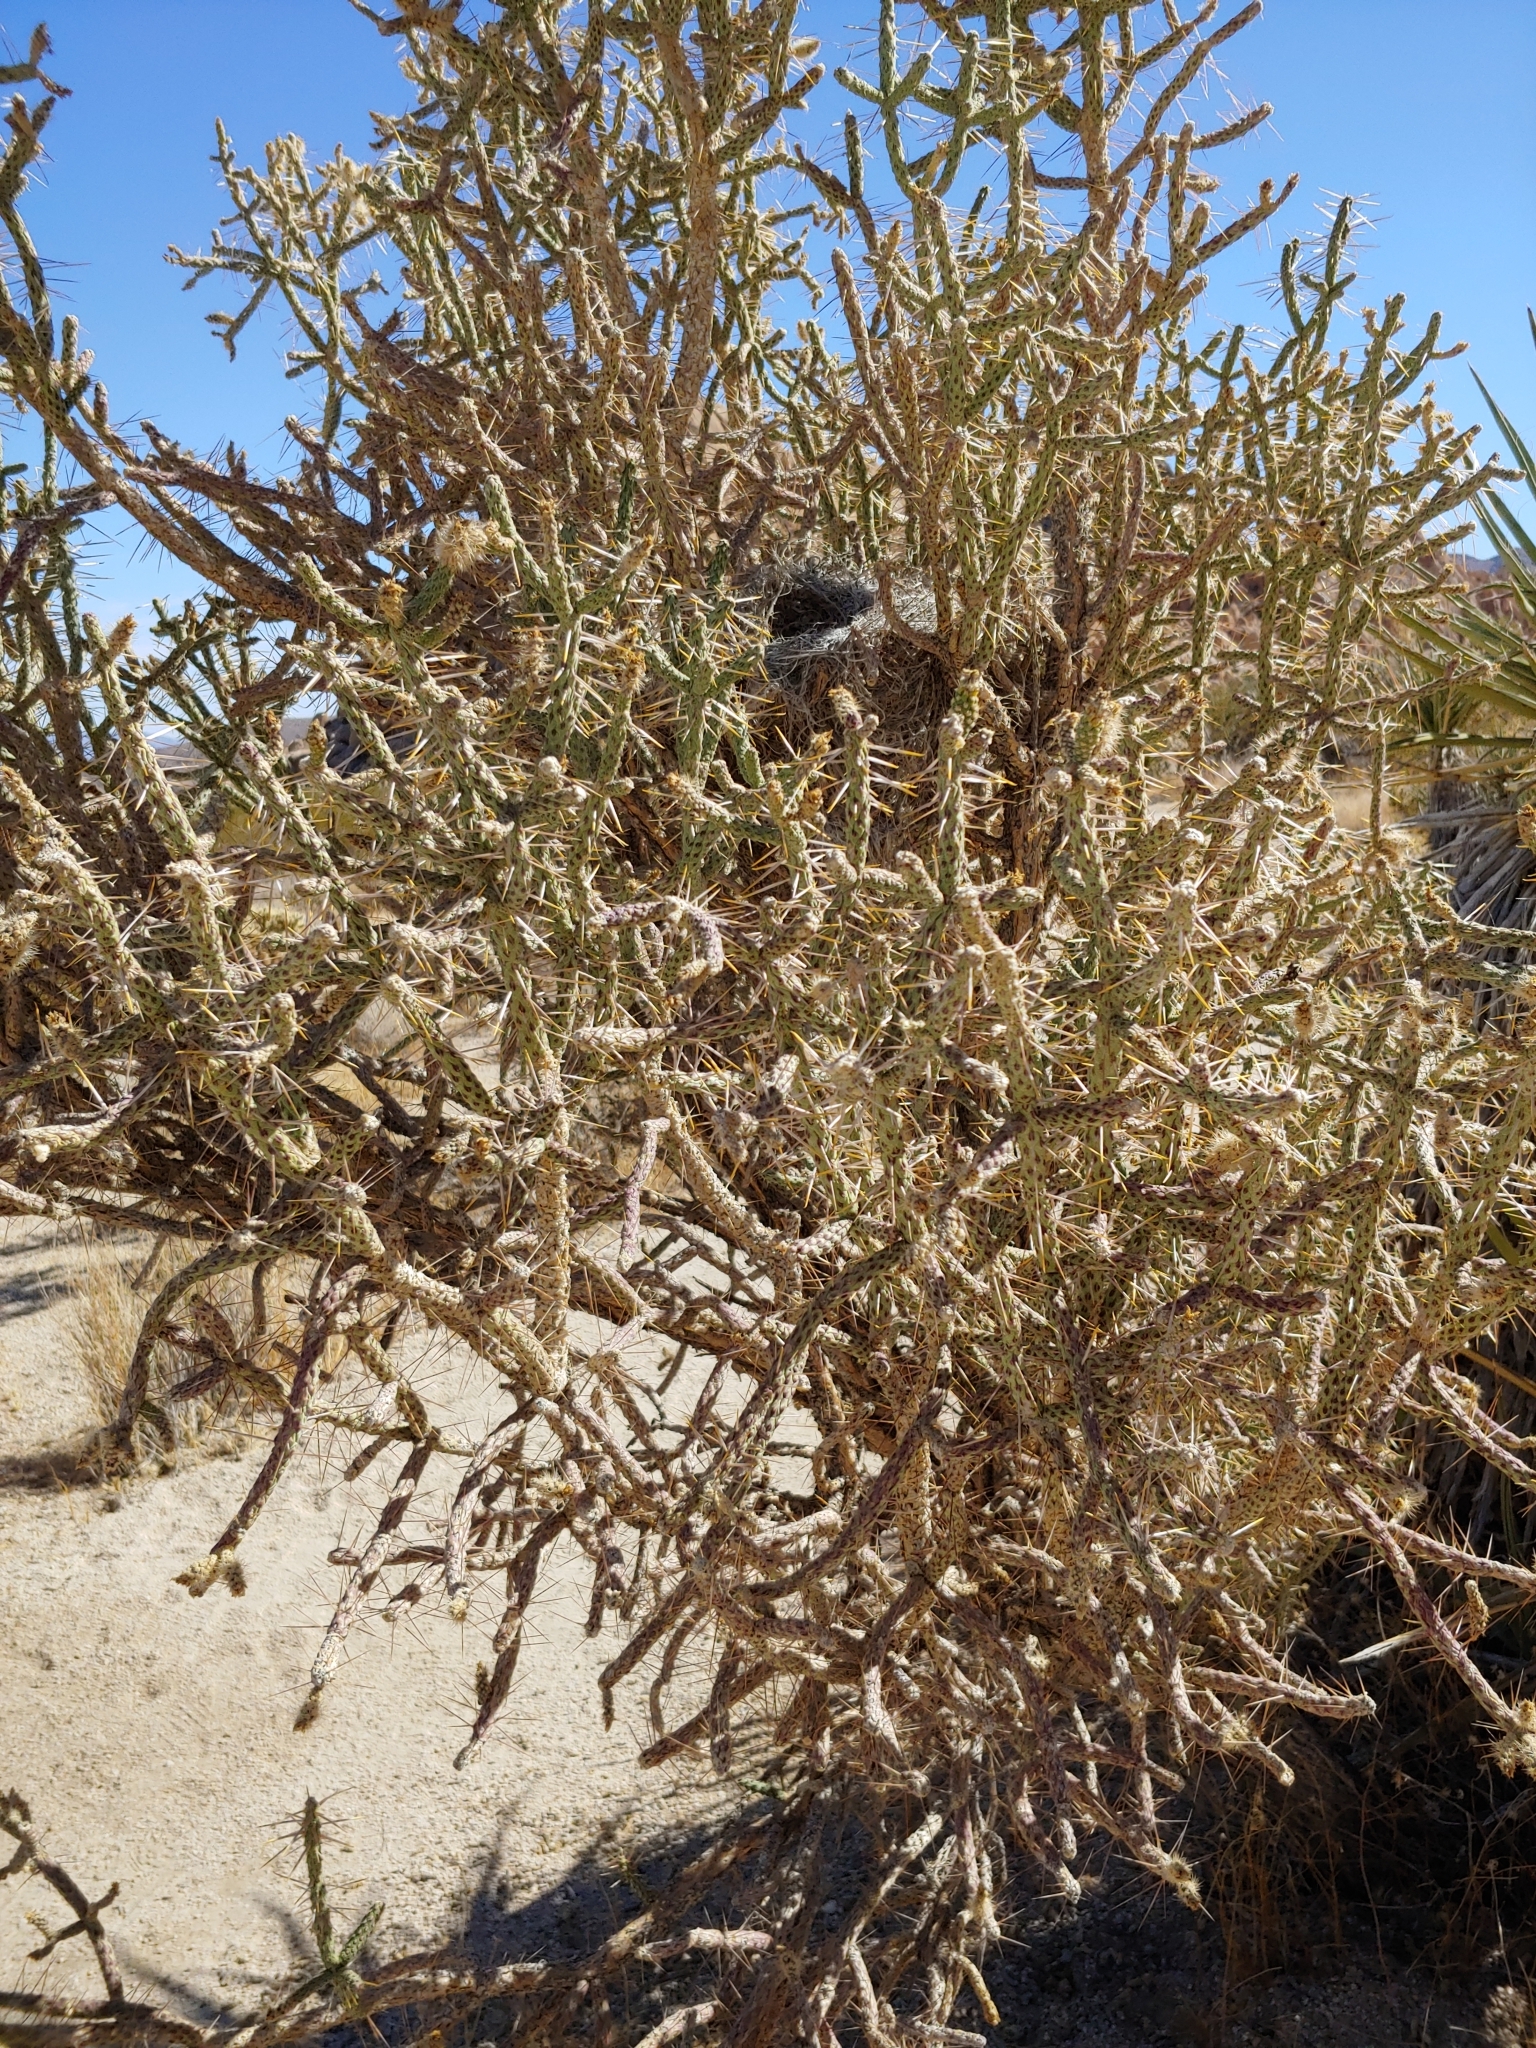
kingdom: Animalia
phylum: Chordata
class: Aves
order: Passeriformes
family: Troglodytidae
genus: Campylorhynchus
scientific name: Campylorhynchus brunneicapillus
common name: Cactus wren
